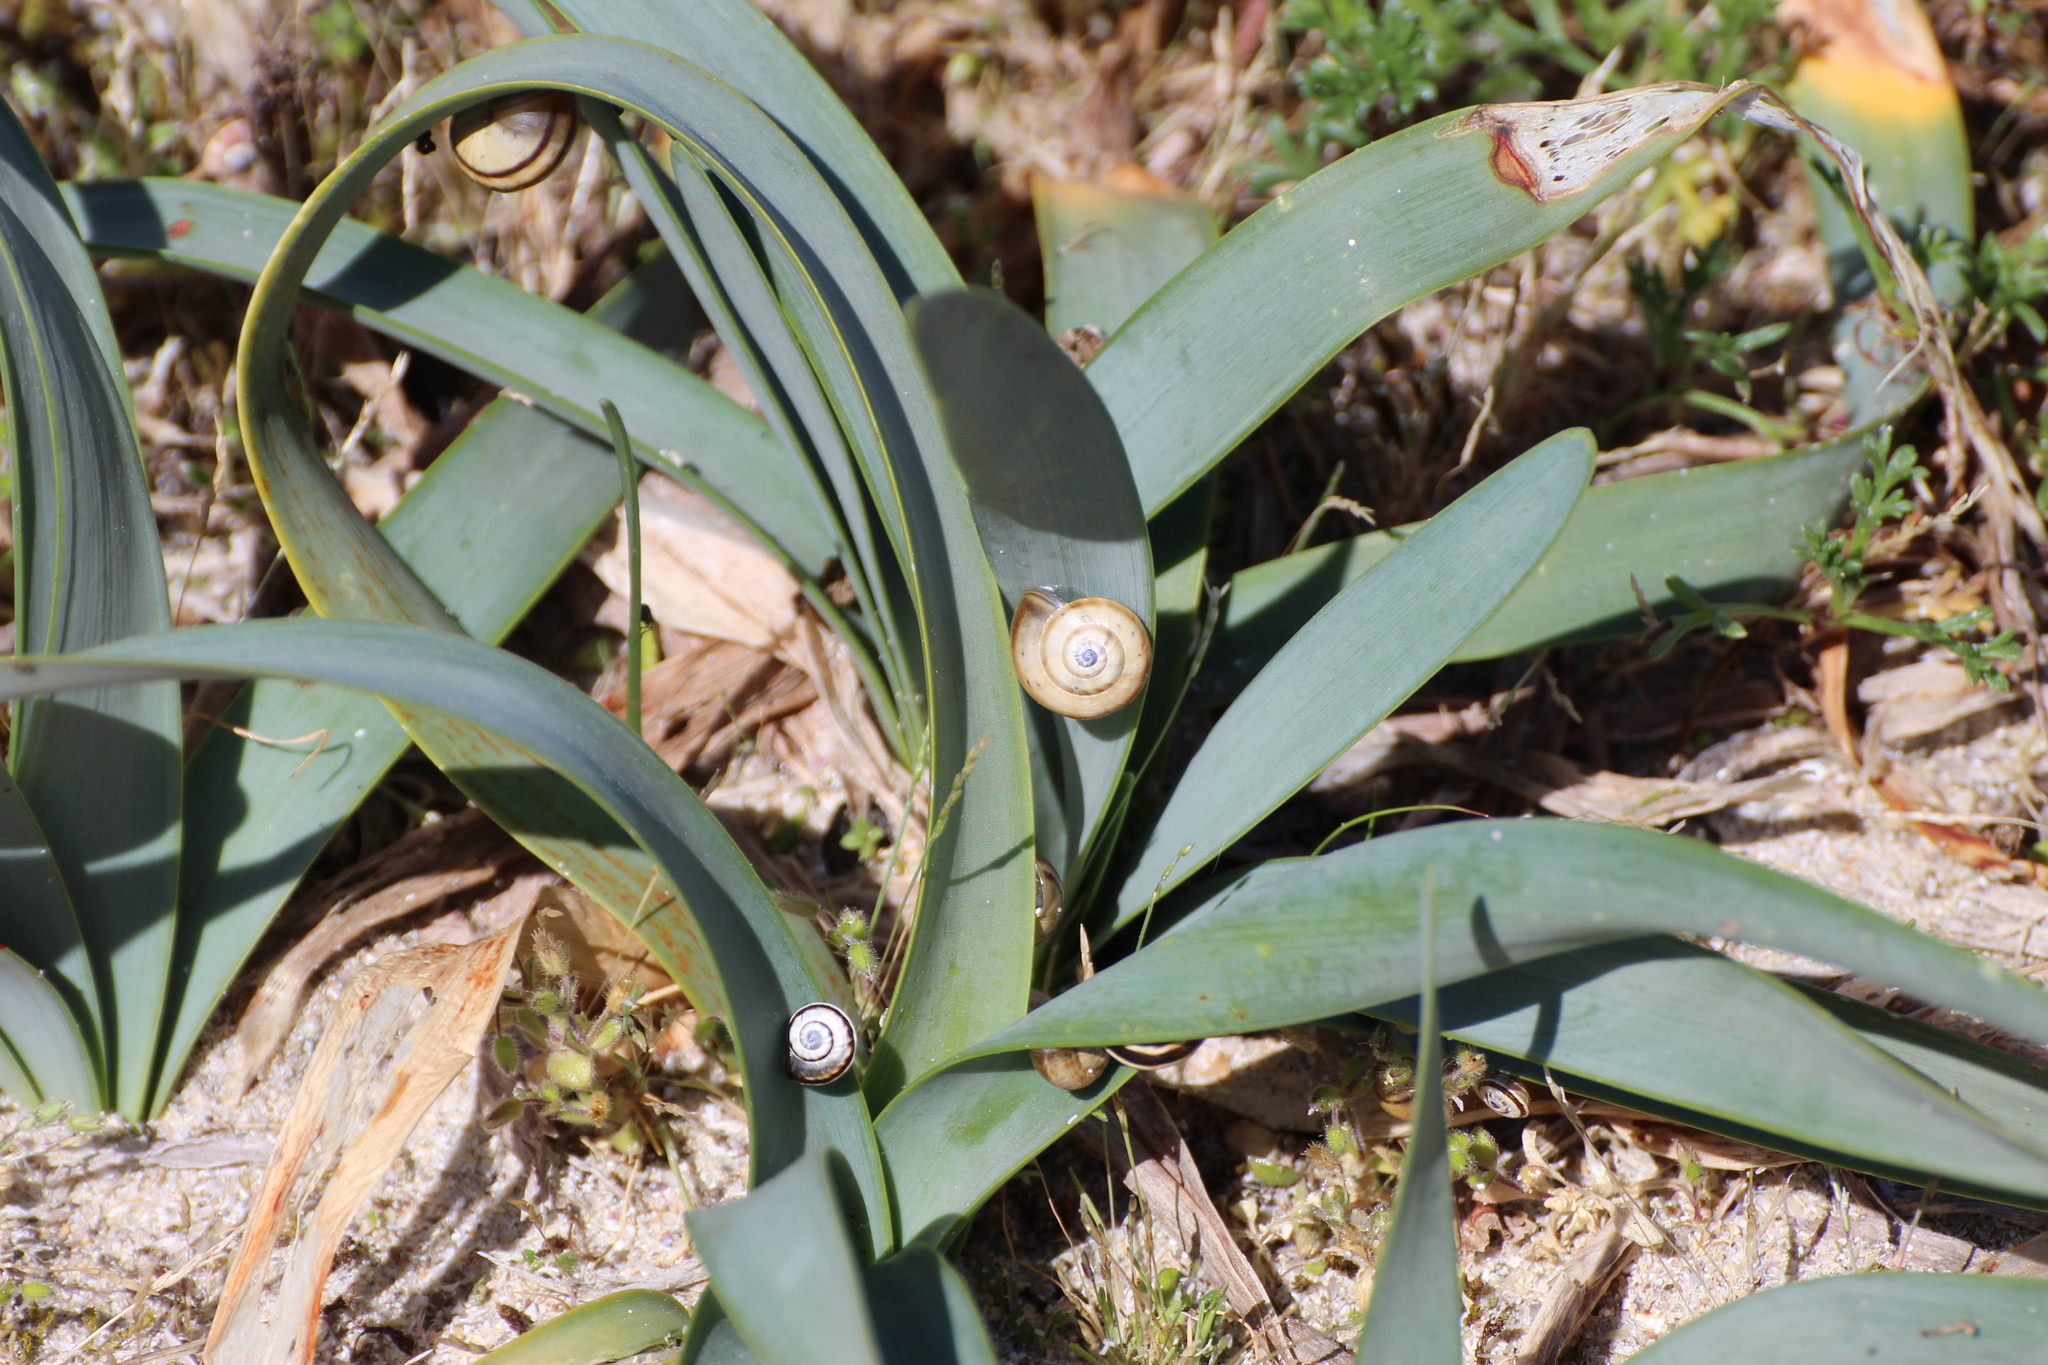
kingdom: Animalia
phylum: Mollusca
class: Gastropoda
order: Stylommatophora
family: Helicidae
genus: Theba
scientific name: Theba pisana
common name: White snail
